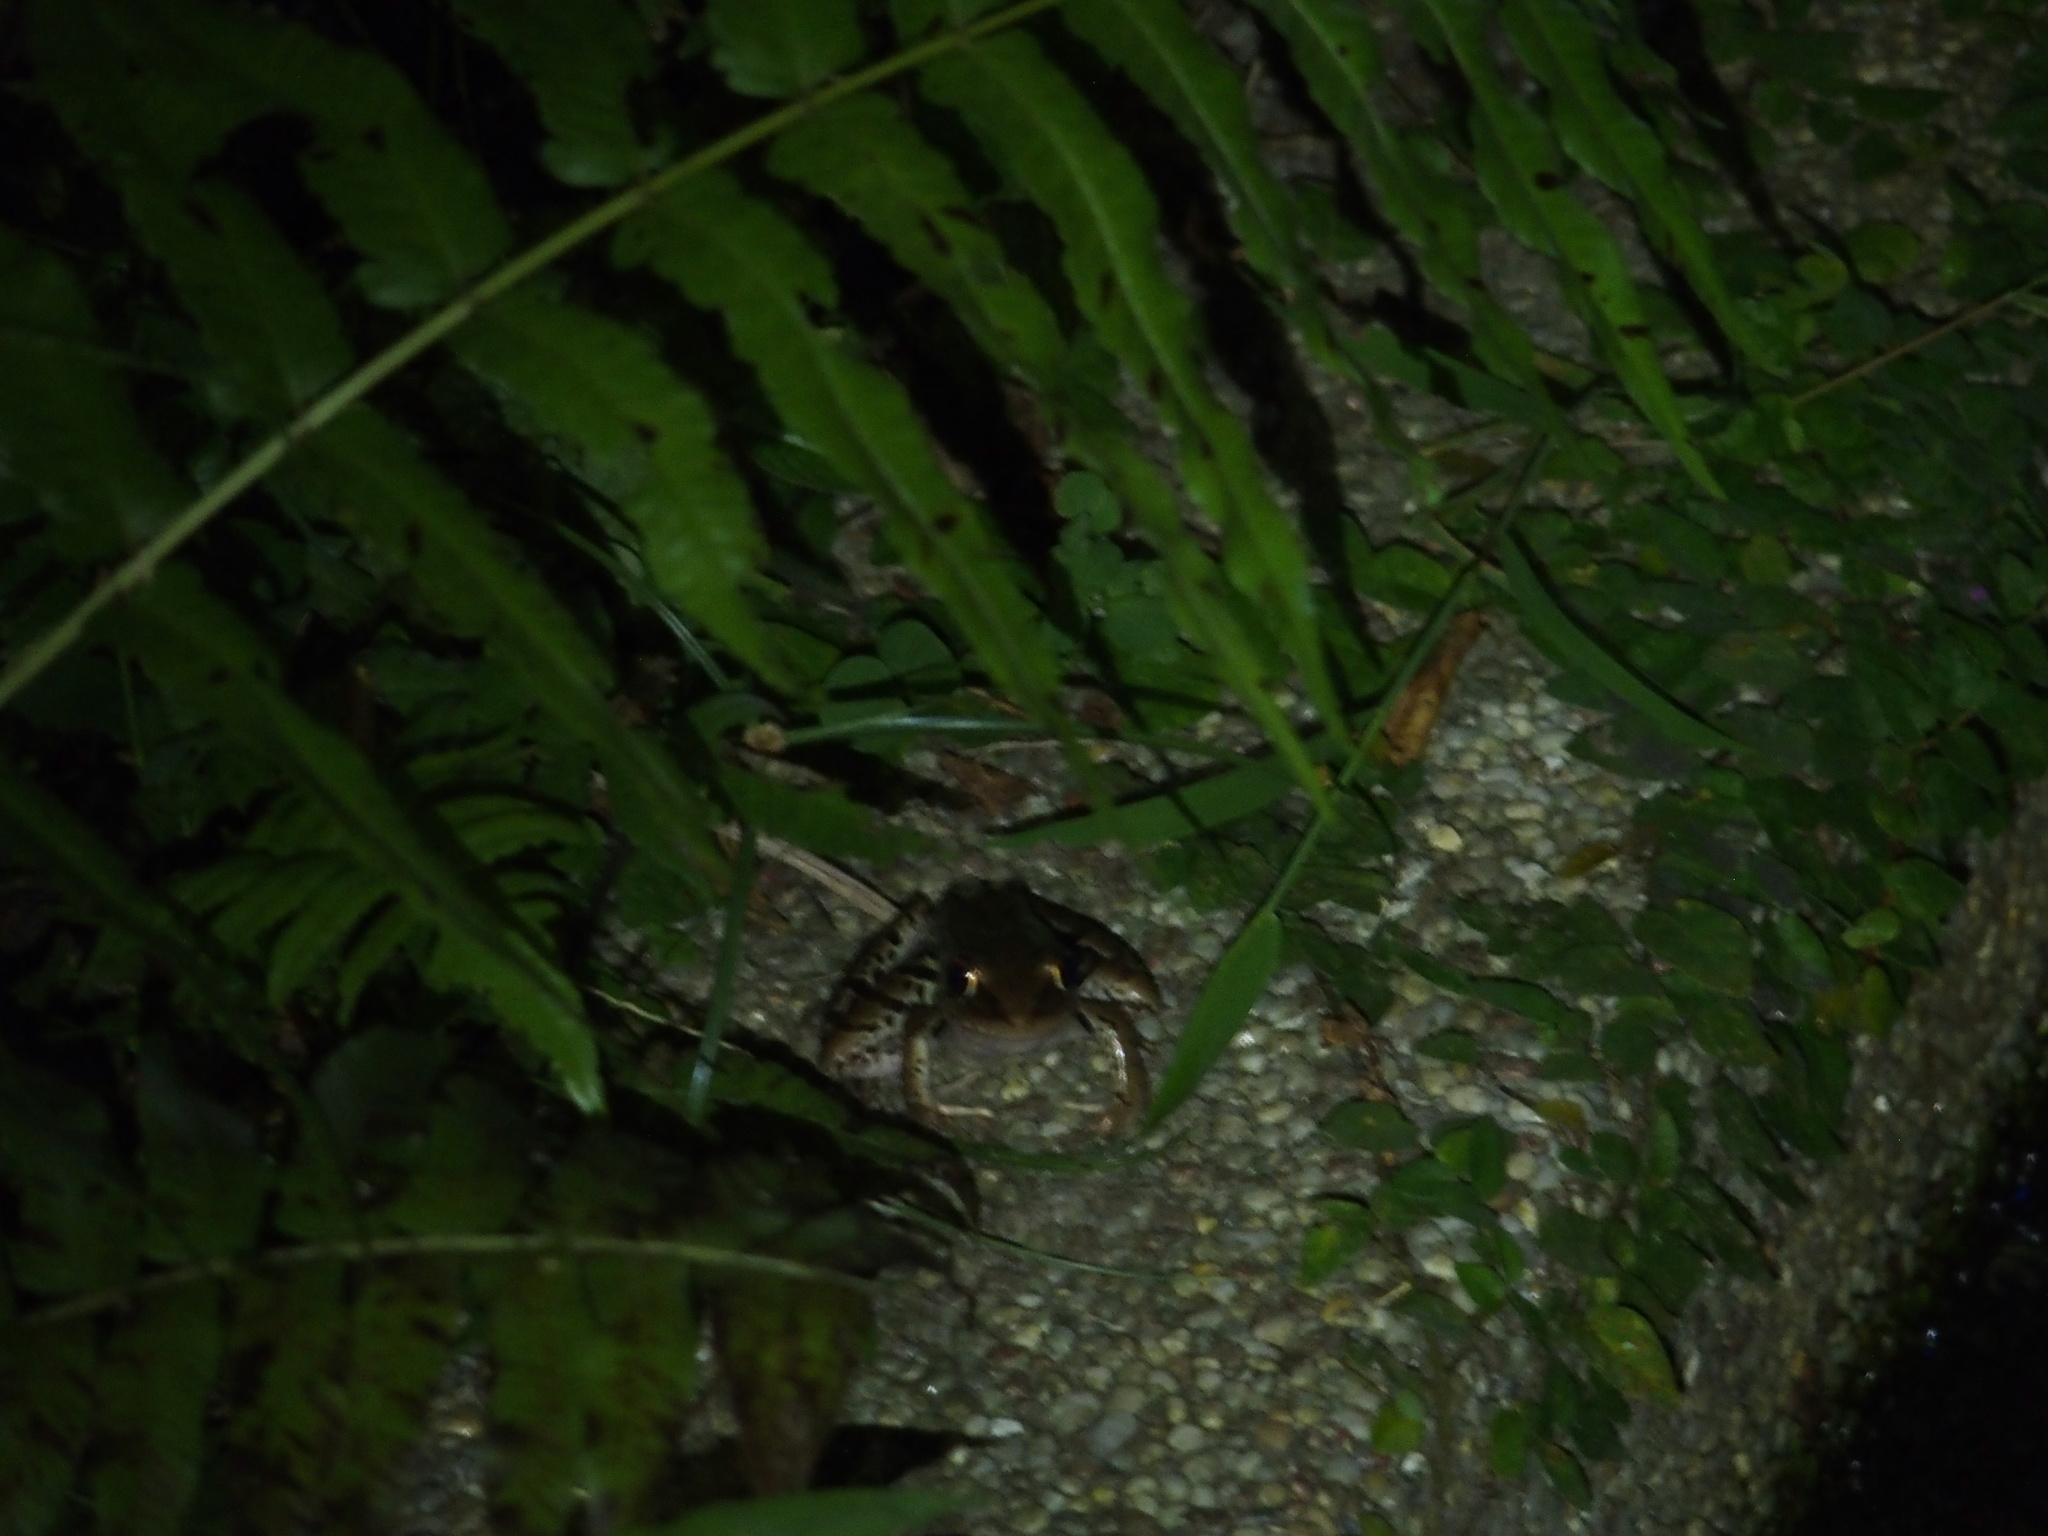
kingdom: Animalia
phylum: Chordata
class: Amphibia
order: Anura
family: Ranidae
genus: Sylvirana
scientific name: Sylvirana guentheri
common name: Guenther's amoy frog
